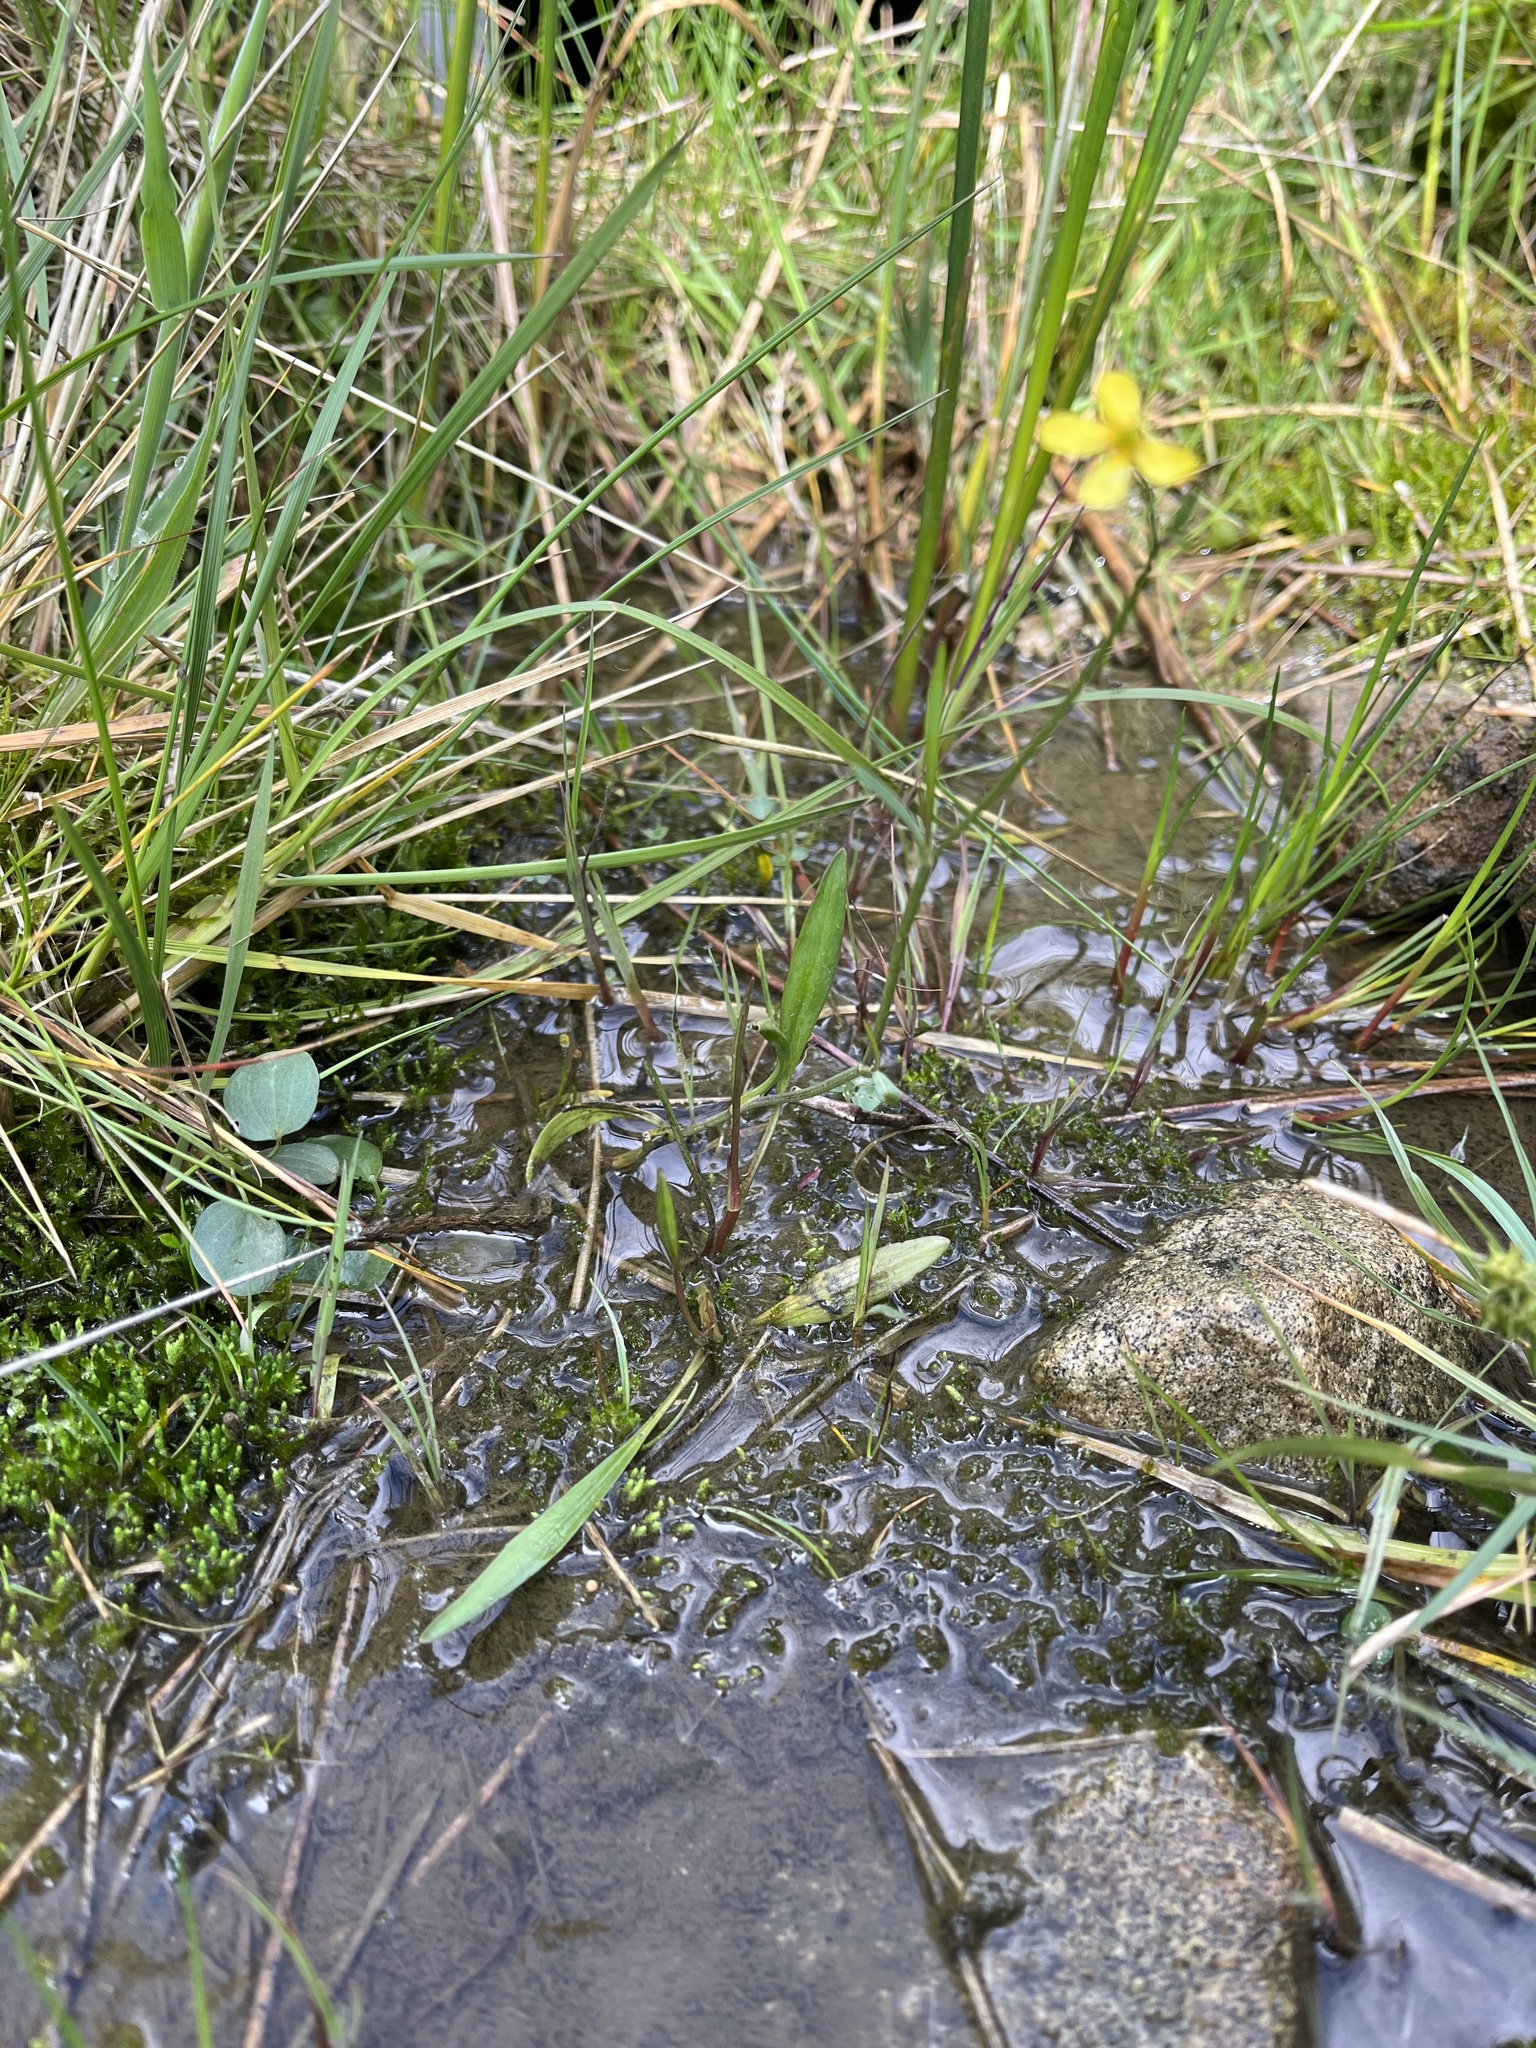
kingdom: Plantae
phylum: Tracheophyta
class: Magnoliopsida
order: Ranunculales
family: Ranunculaceae
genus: Ranunculus
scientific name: Ranunculus flammula
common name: Lesser spearwort
